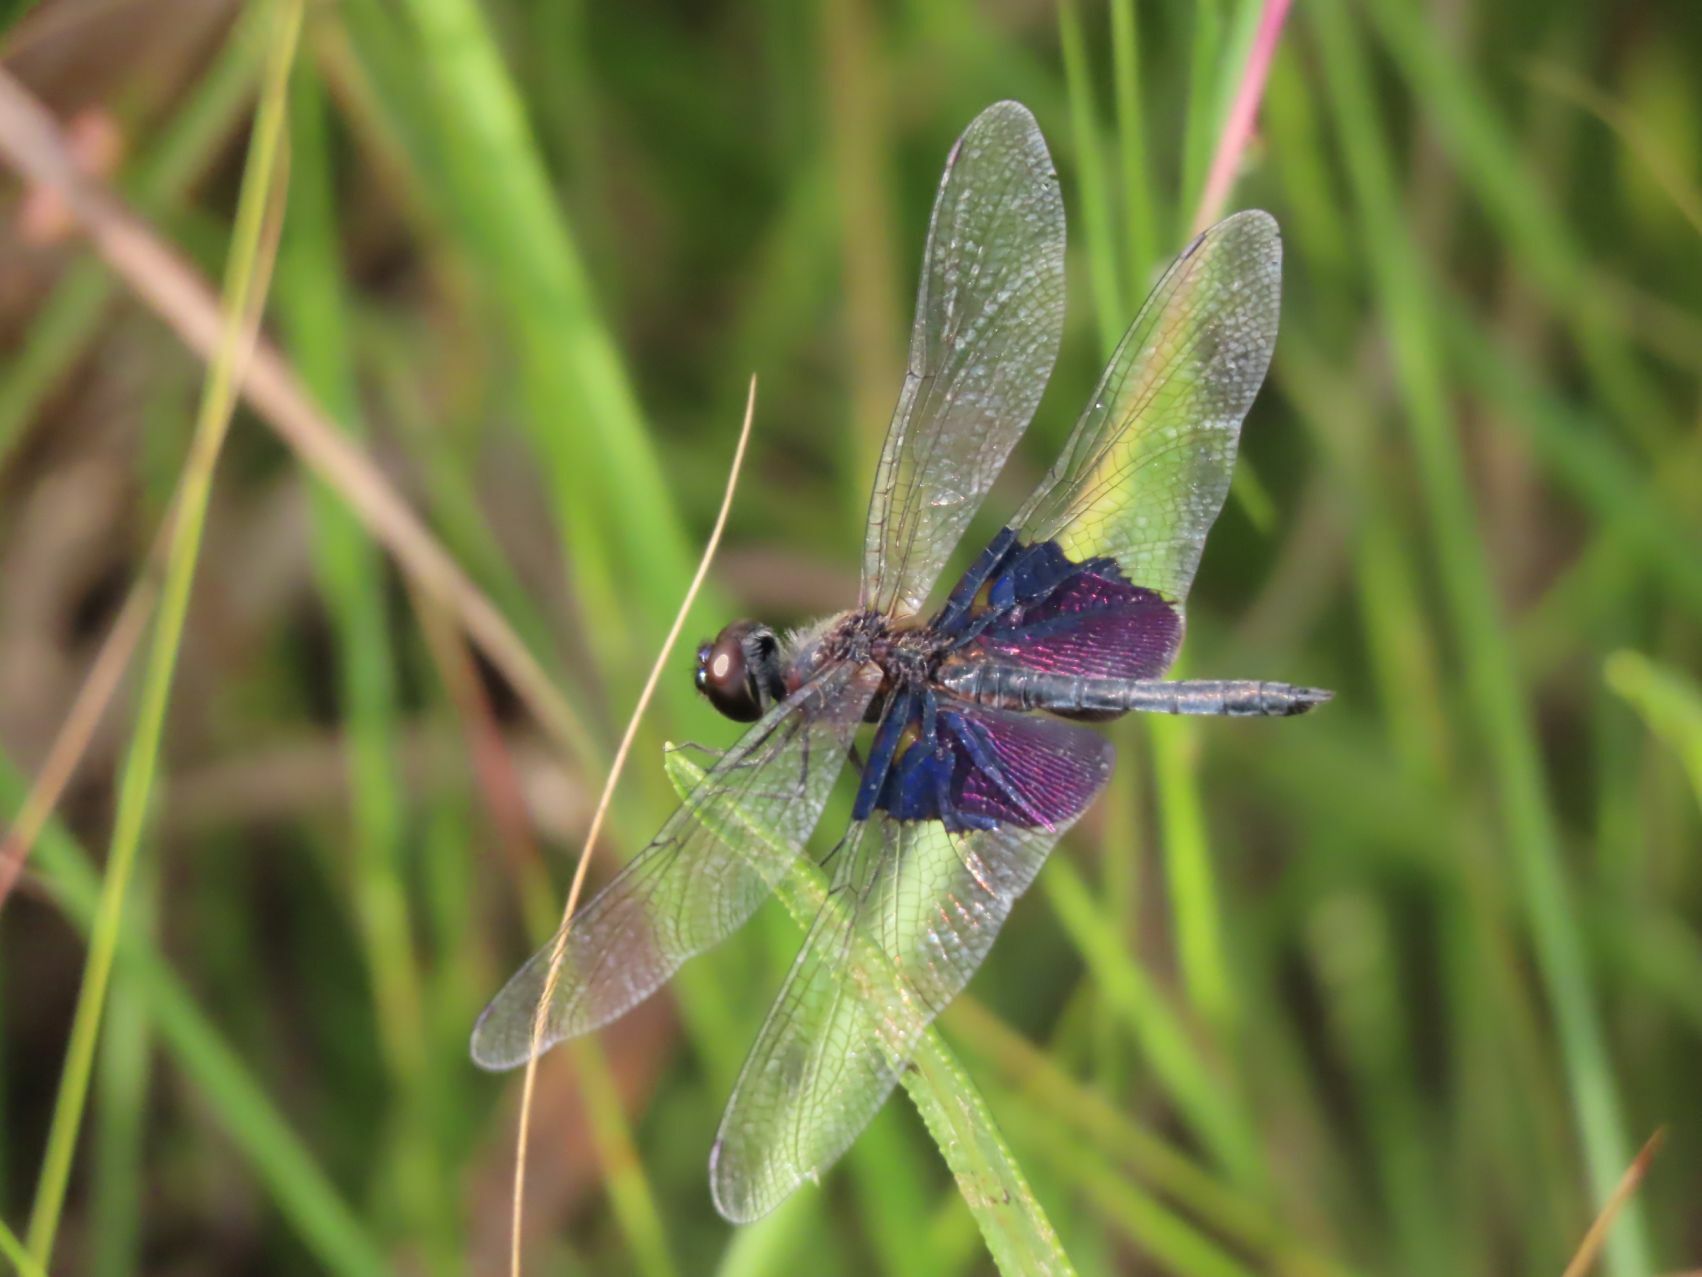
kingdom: Animalia
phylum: Arthropoda
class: Insecta
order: Odonata
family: Libellulidae
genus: Rhyothemis
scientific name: Rhyothemis semihyalina
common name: Phantom flutterer
